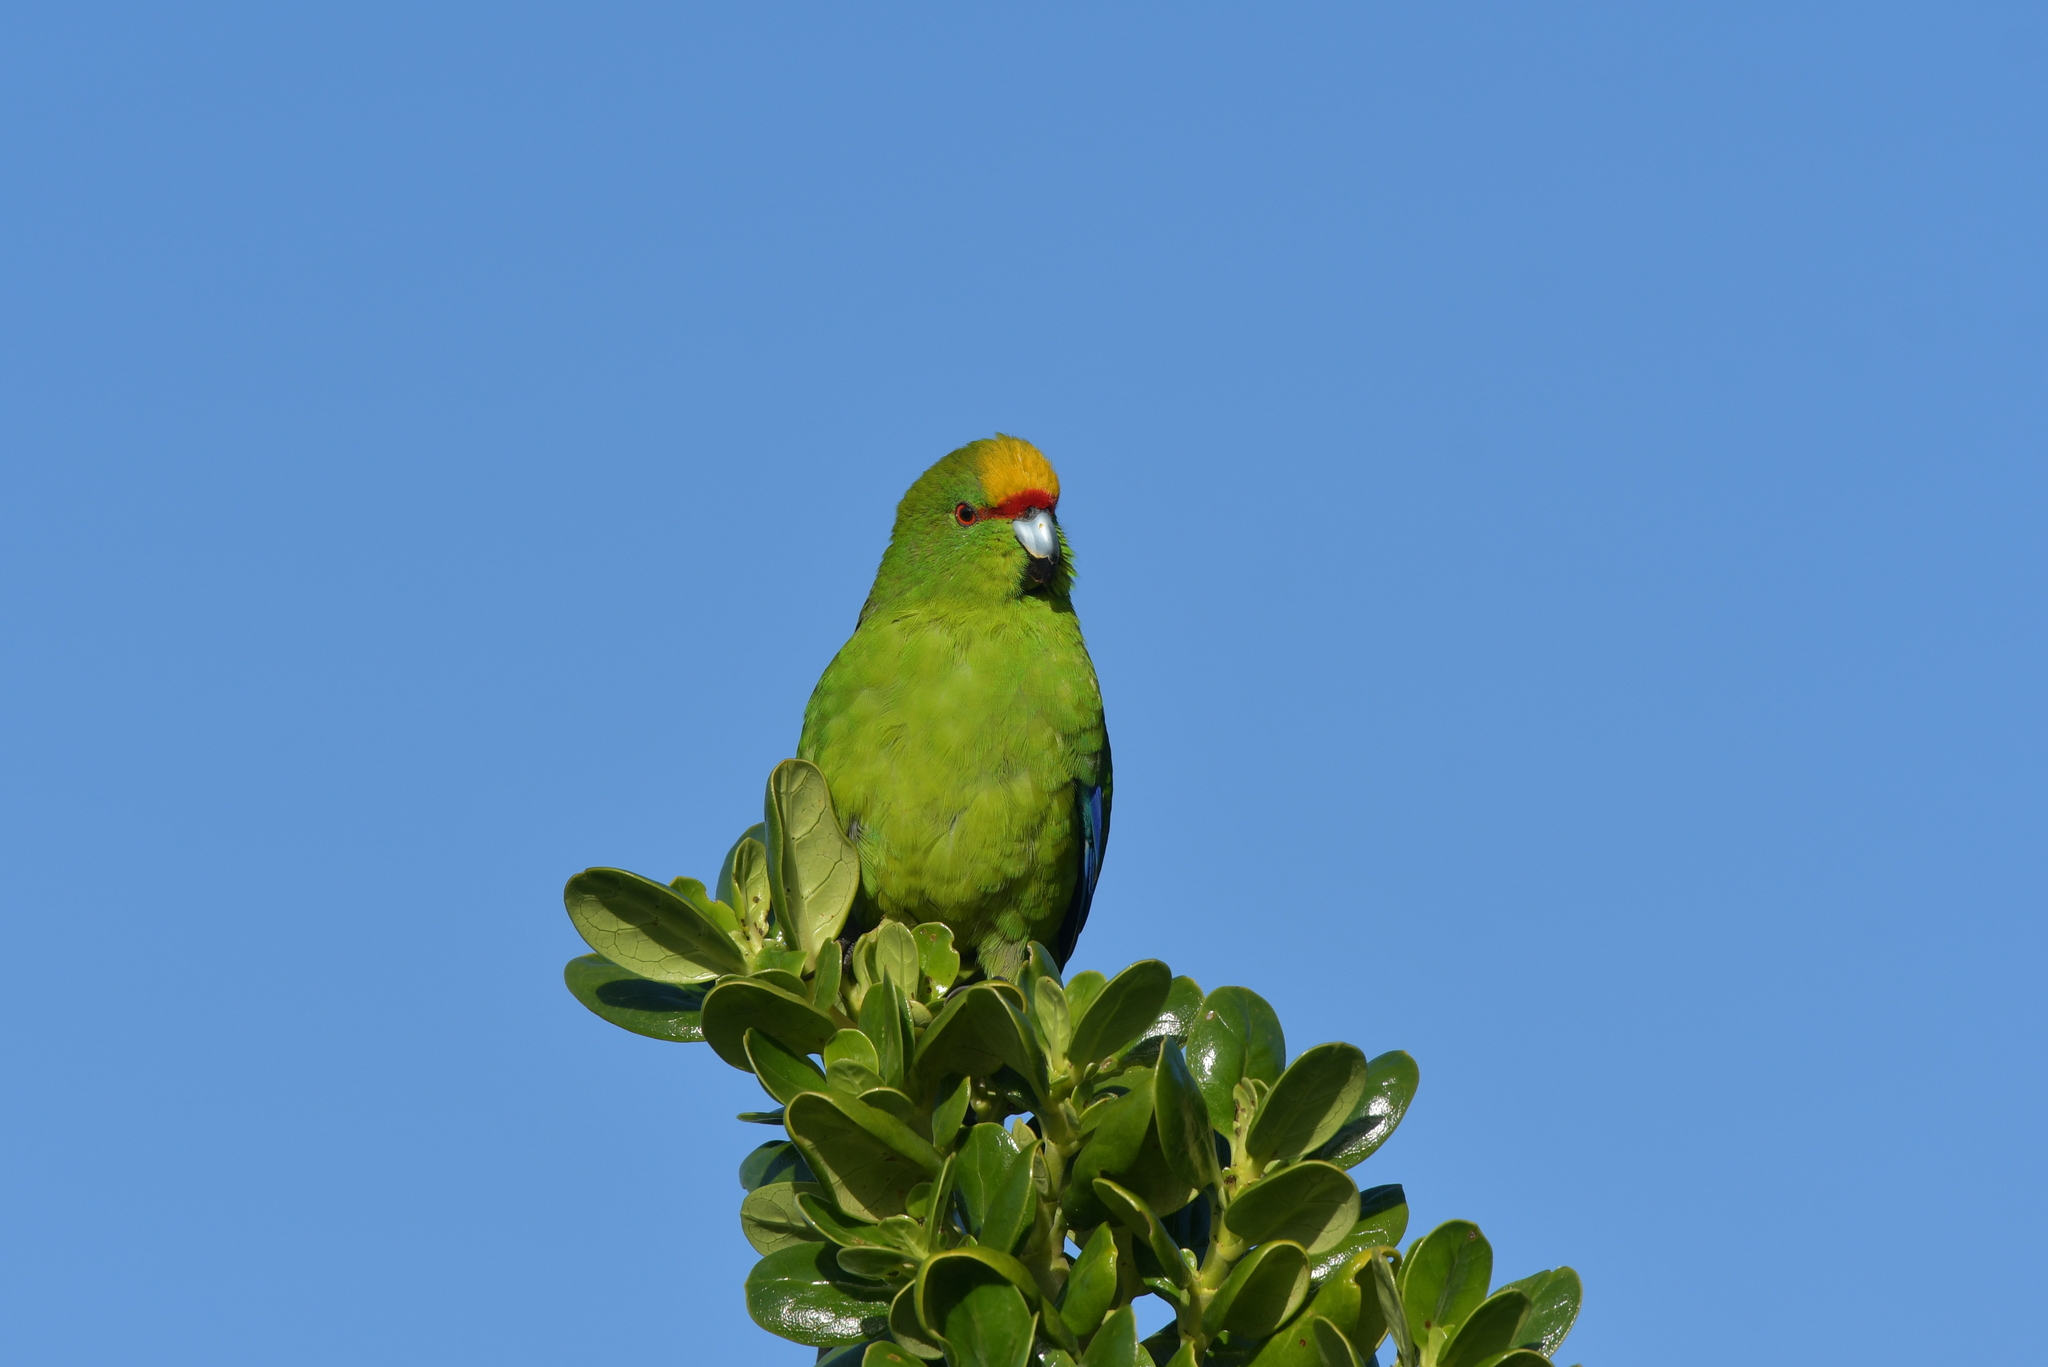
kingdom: Animalia
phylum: Chordata
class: Aves
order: Psittaciformes
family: Psittacidae
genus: Cyanoramphus
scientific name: Cyanoramphus auriceps
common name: Yellow-crowned parakeet
